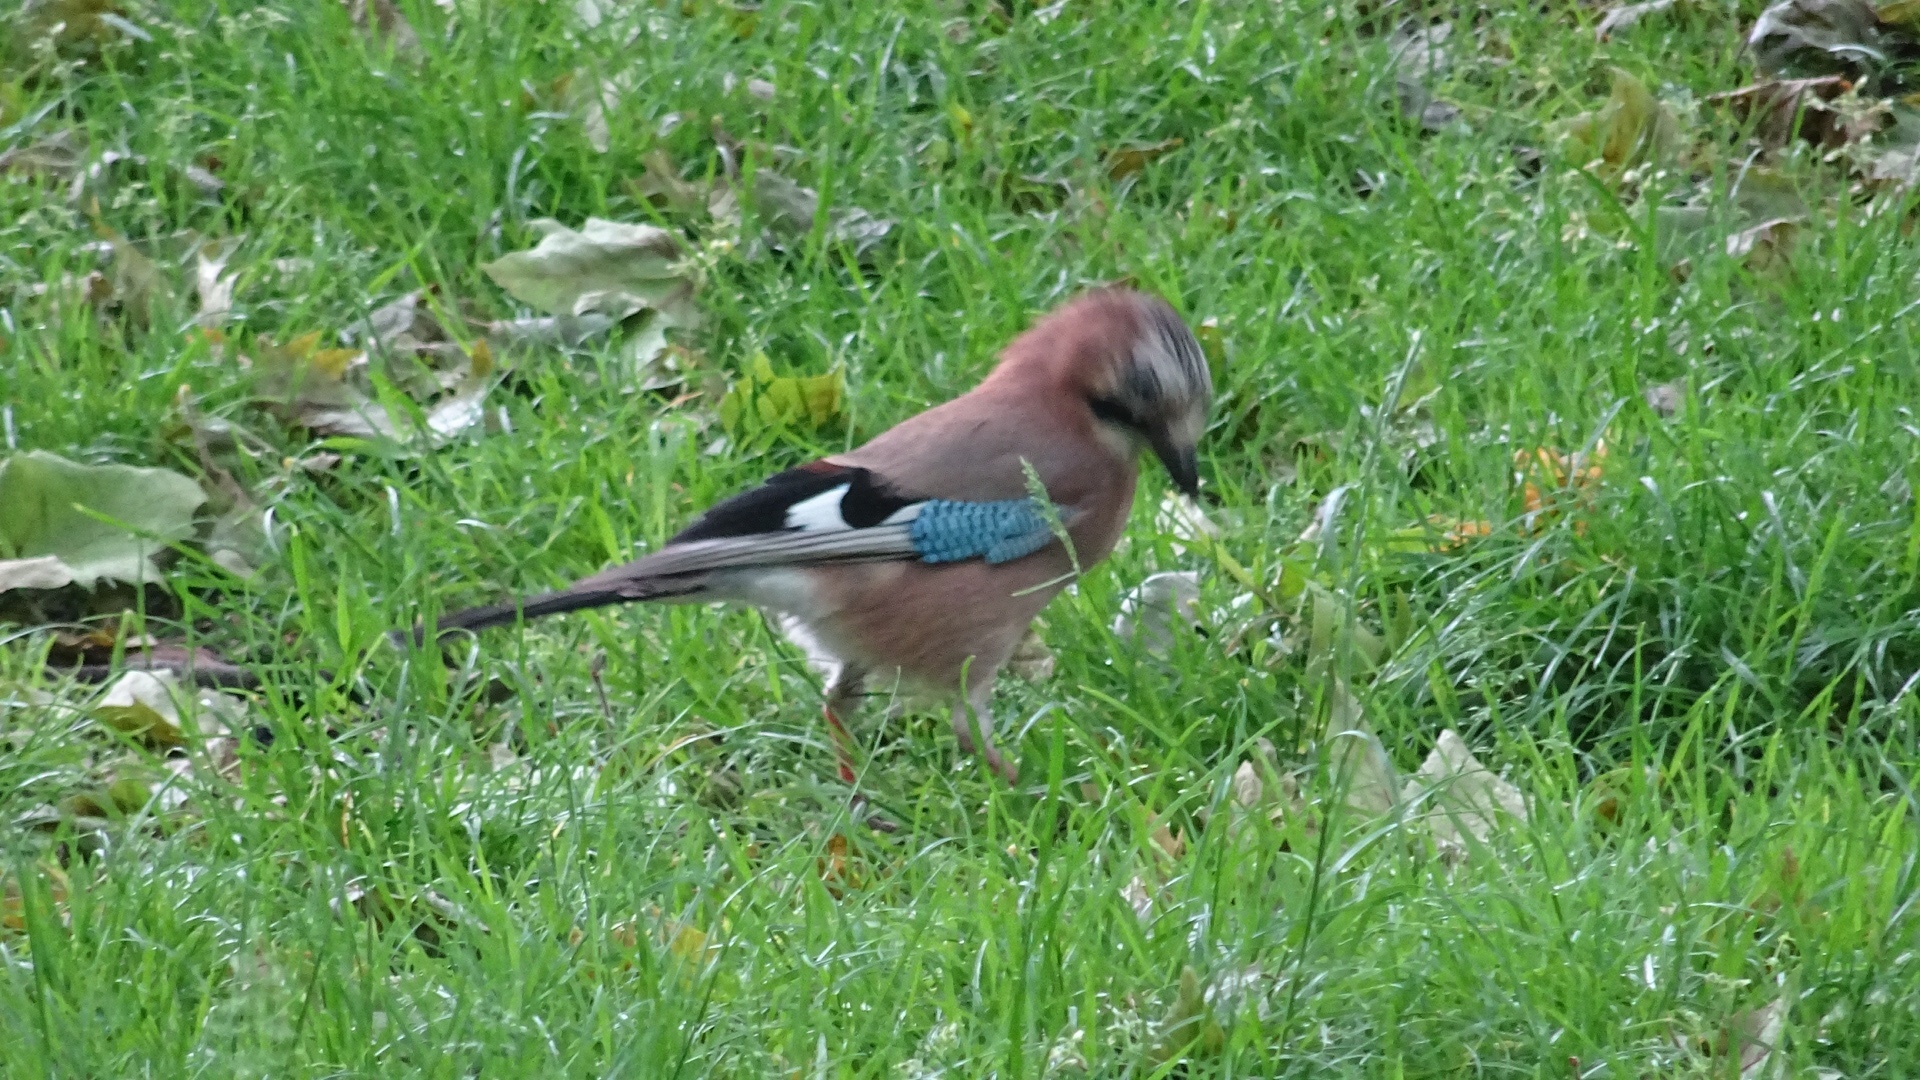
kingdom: Animalia
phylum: Chordata
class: Aves
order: Passeriformes
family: Corvidae
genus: Garrulus
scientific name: Garrulus glandarius
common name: Eurasian jay
